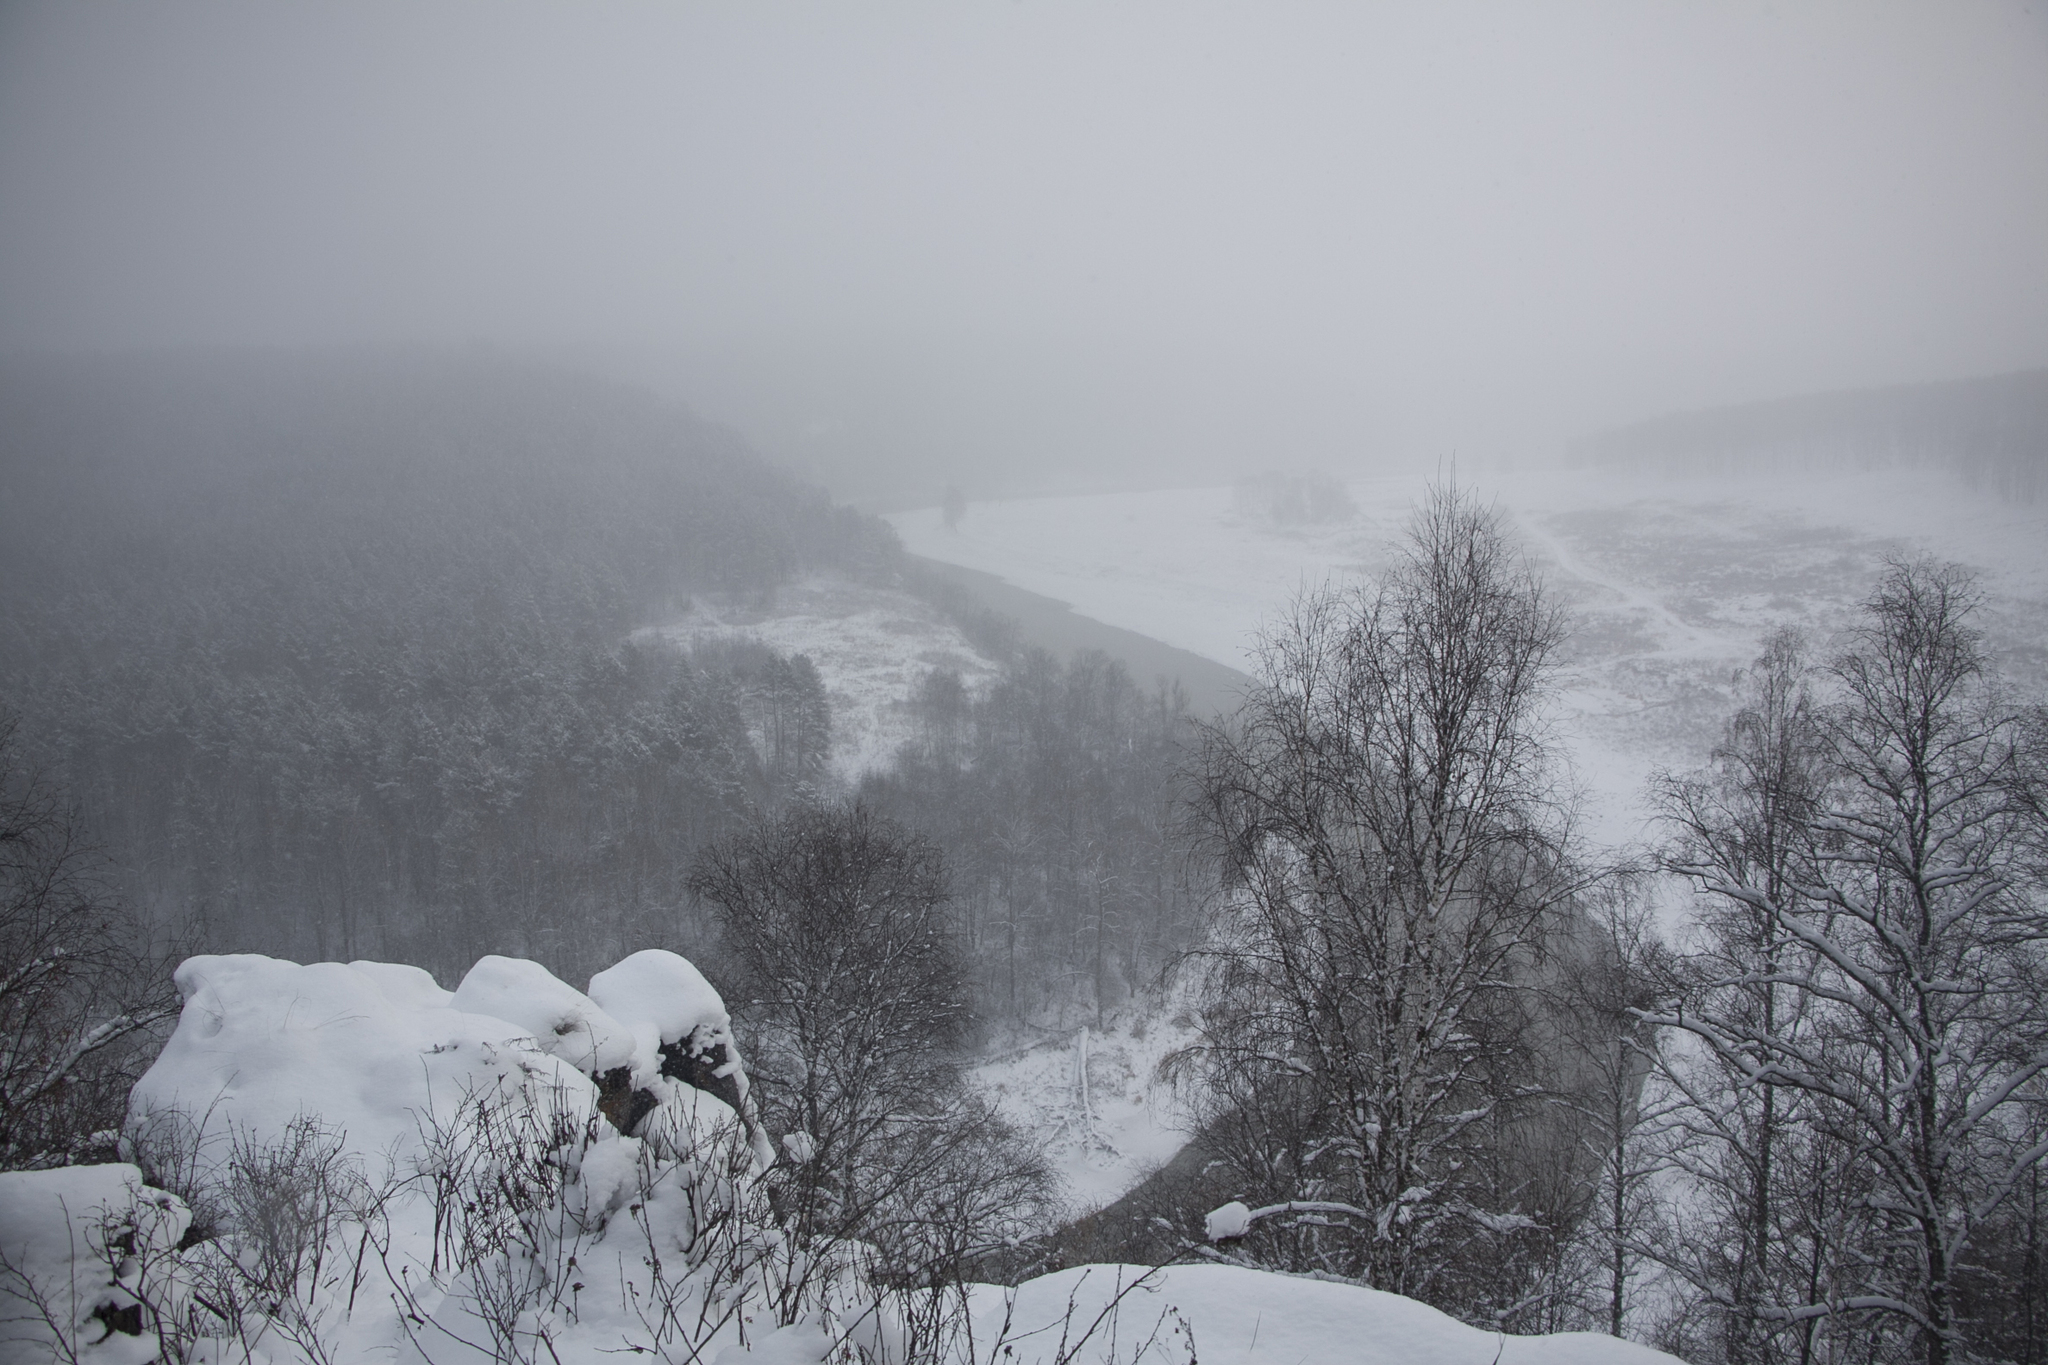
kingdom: Plantae
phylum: Tracheophyta
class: Magnoliopsida
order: Fagales
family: Betulaceae
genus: Betula
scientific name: Betula pendula
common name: Silver birch
